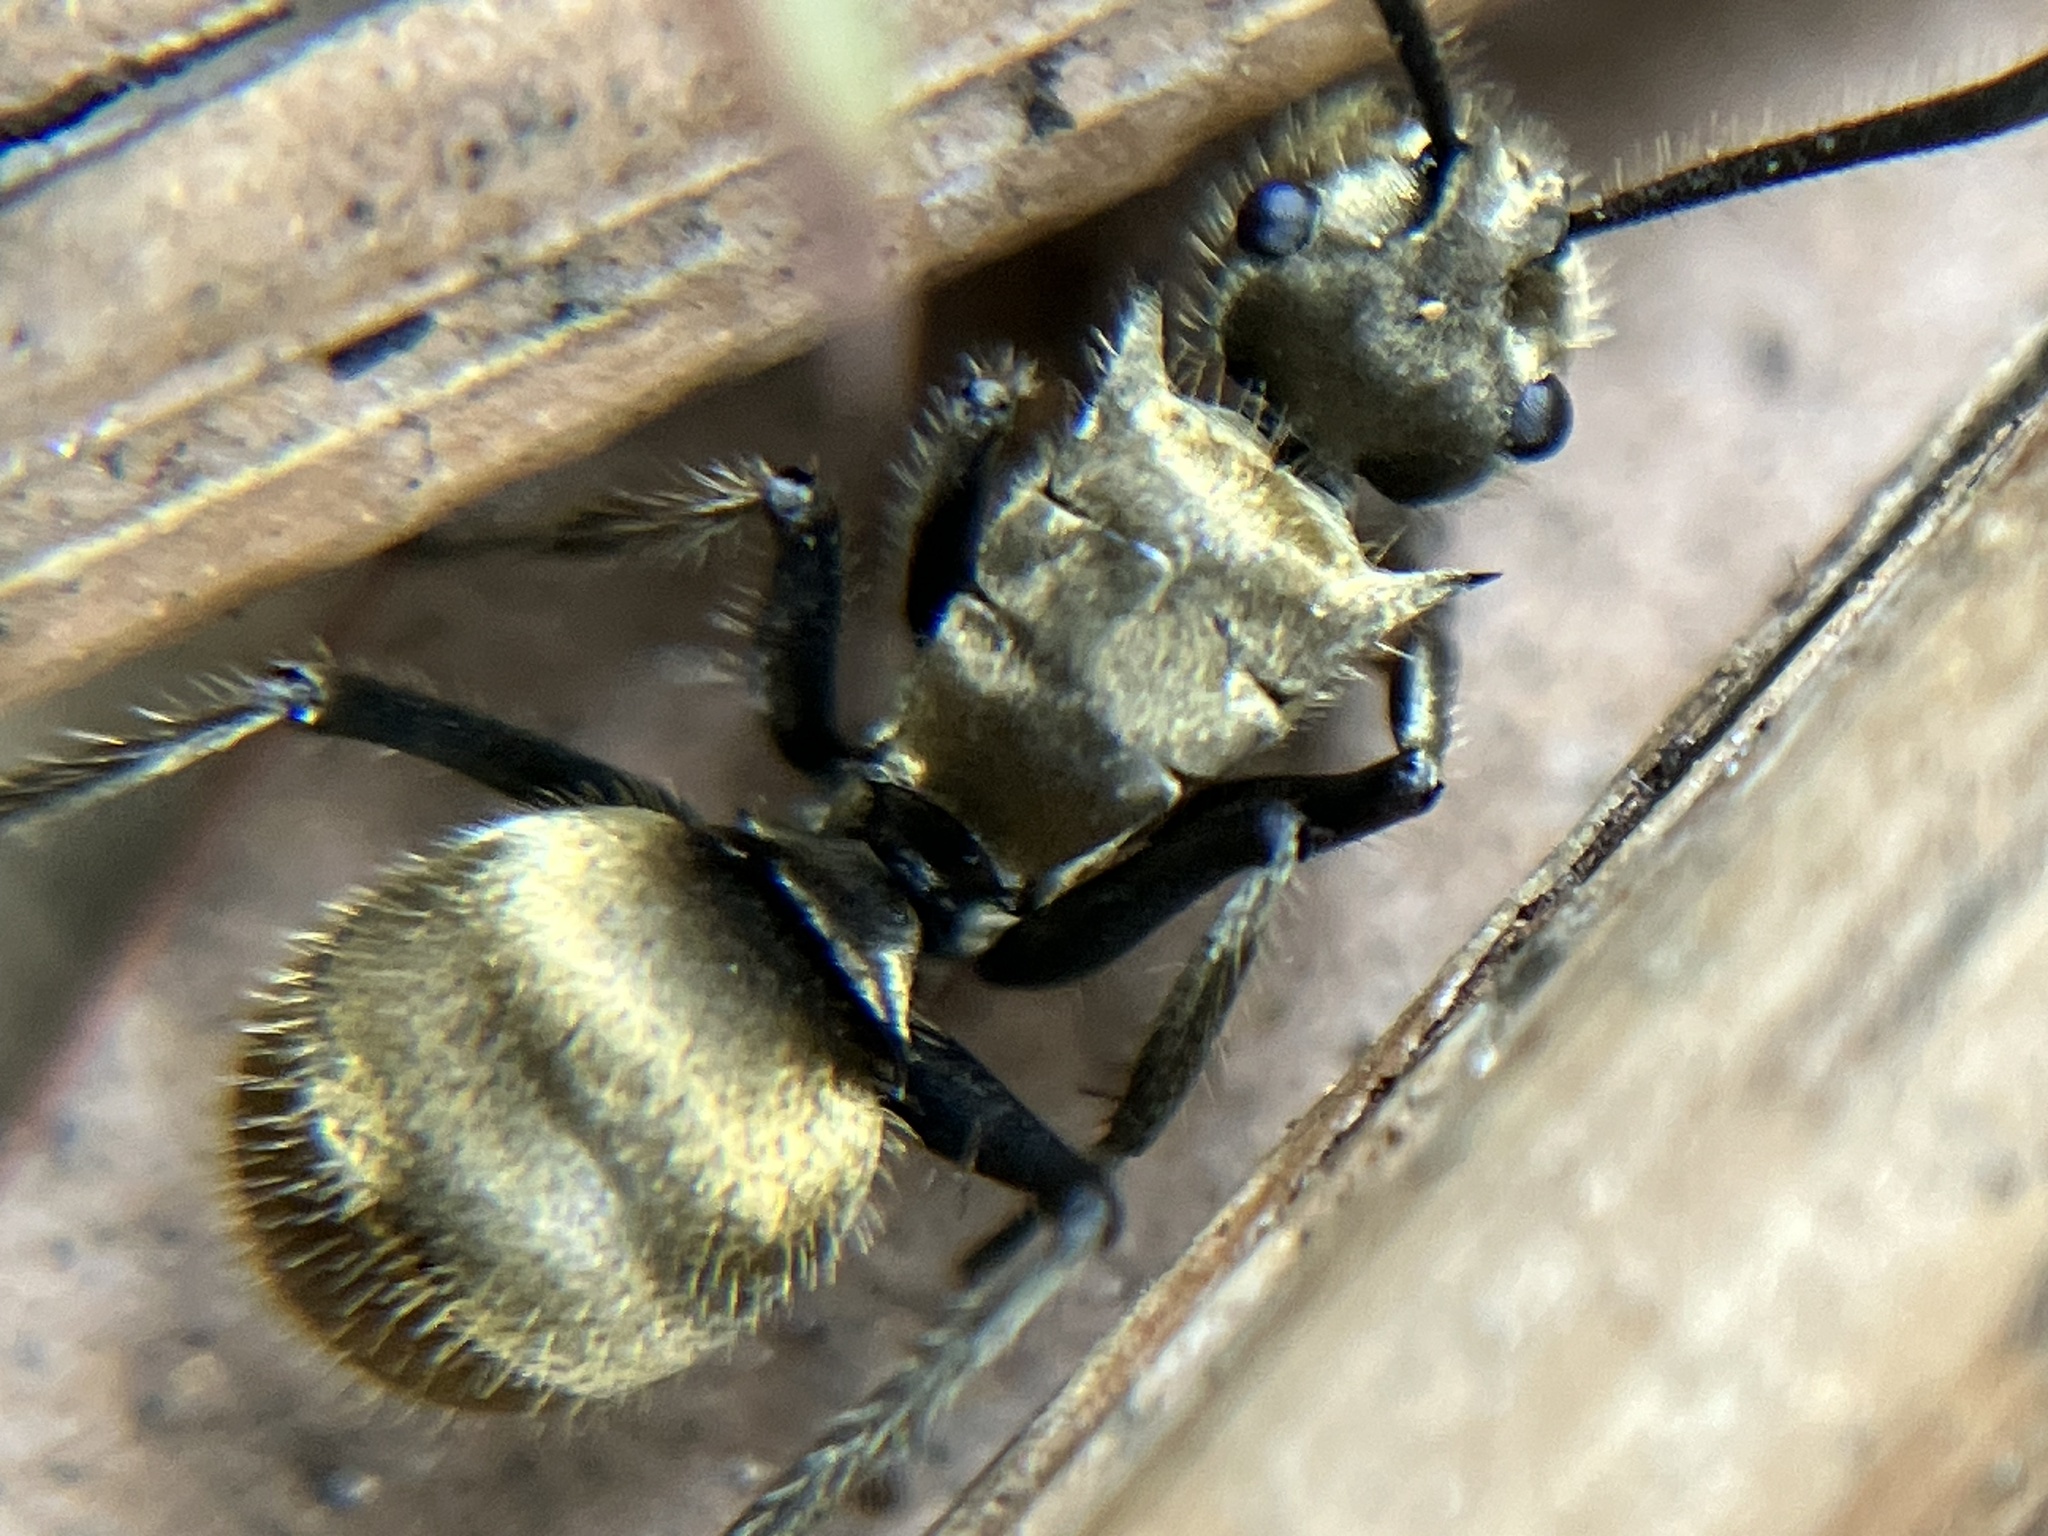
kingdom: Animalia
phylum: Arthropoda
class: Insecta
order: Hymenoptera
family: Formicidae
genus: Polyrhachis
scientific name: Polyrhachis illaudata
